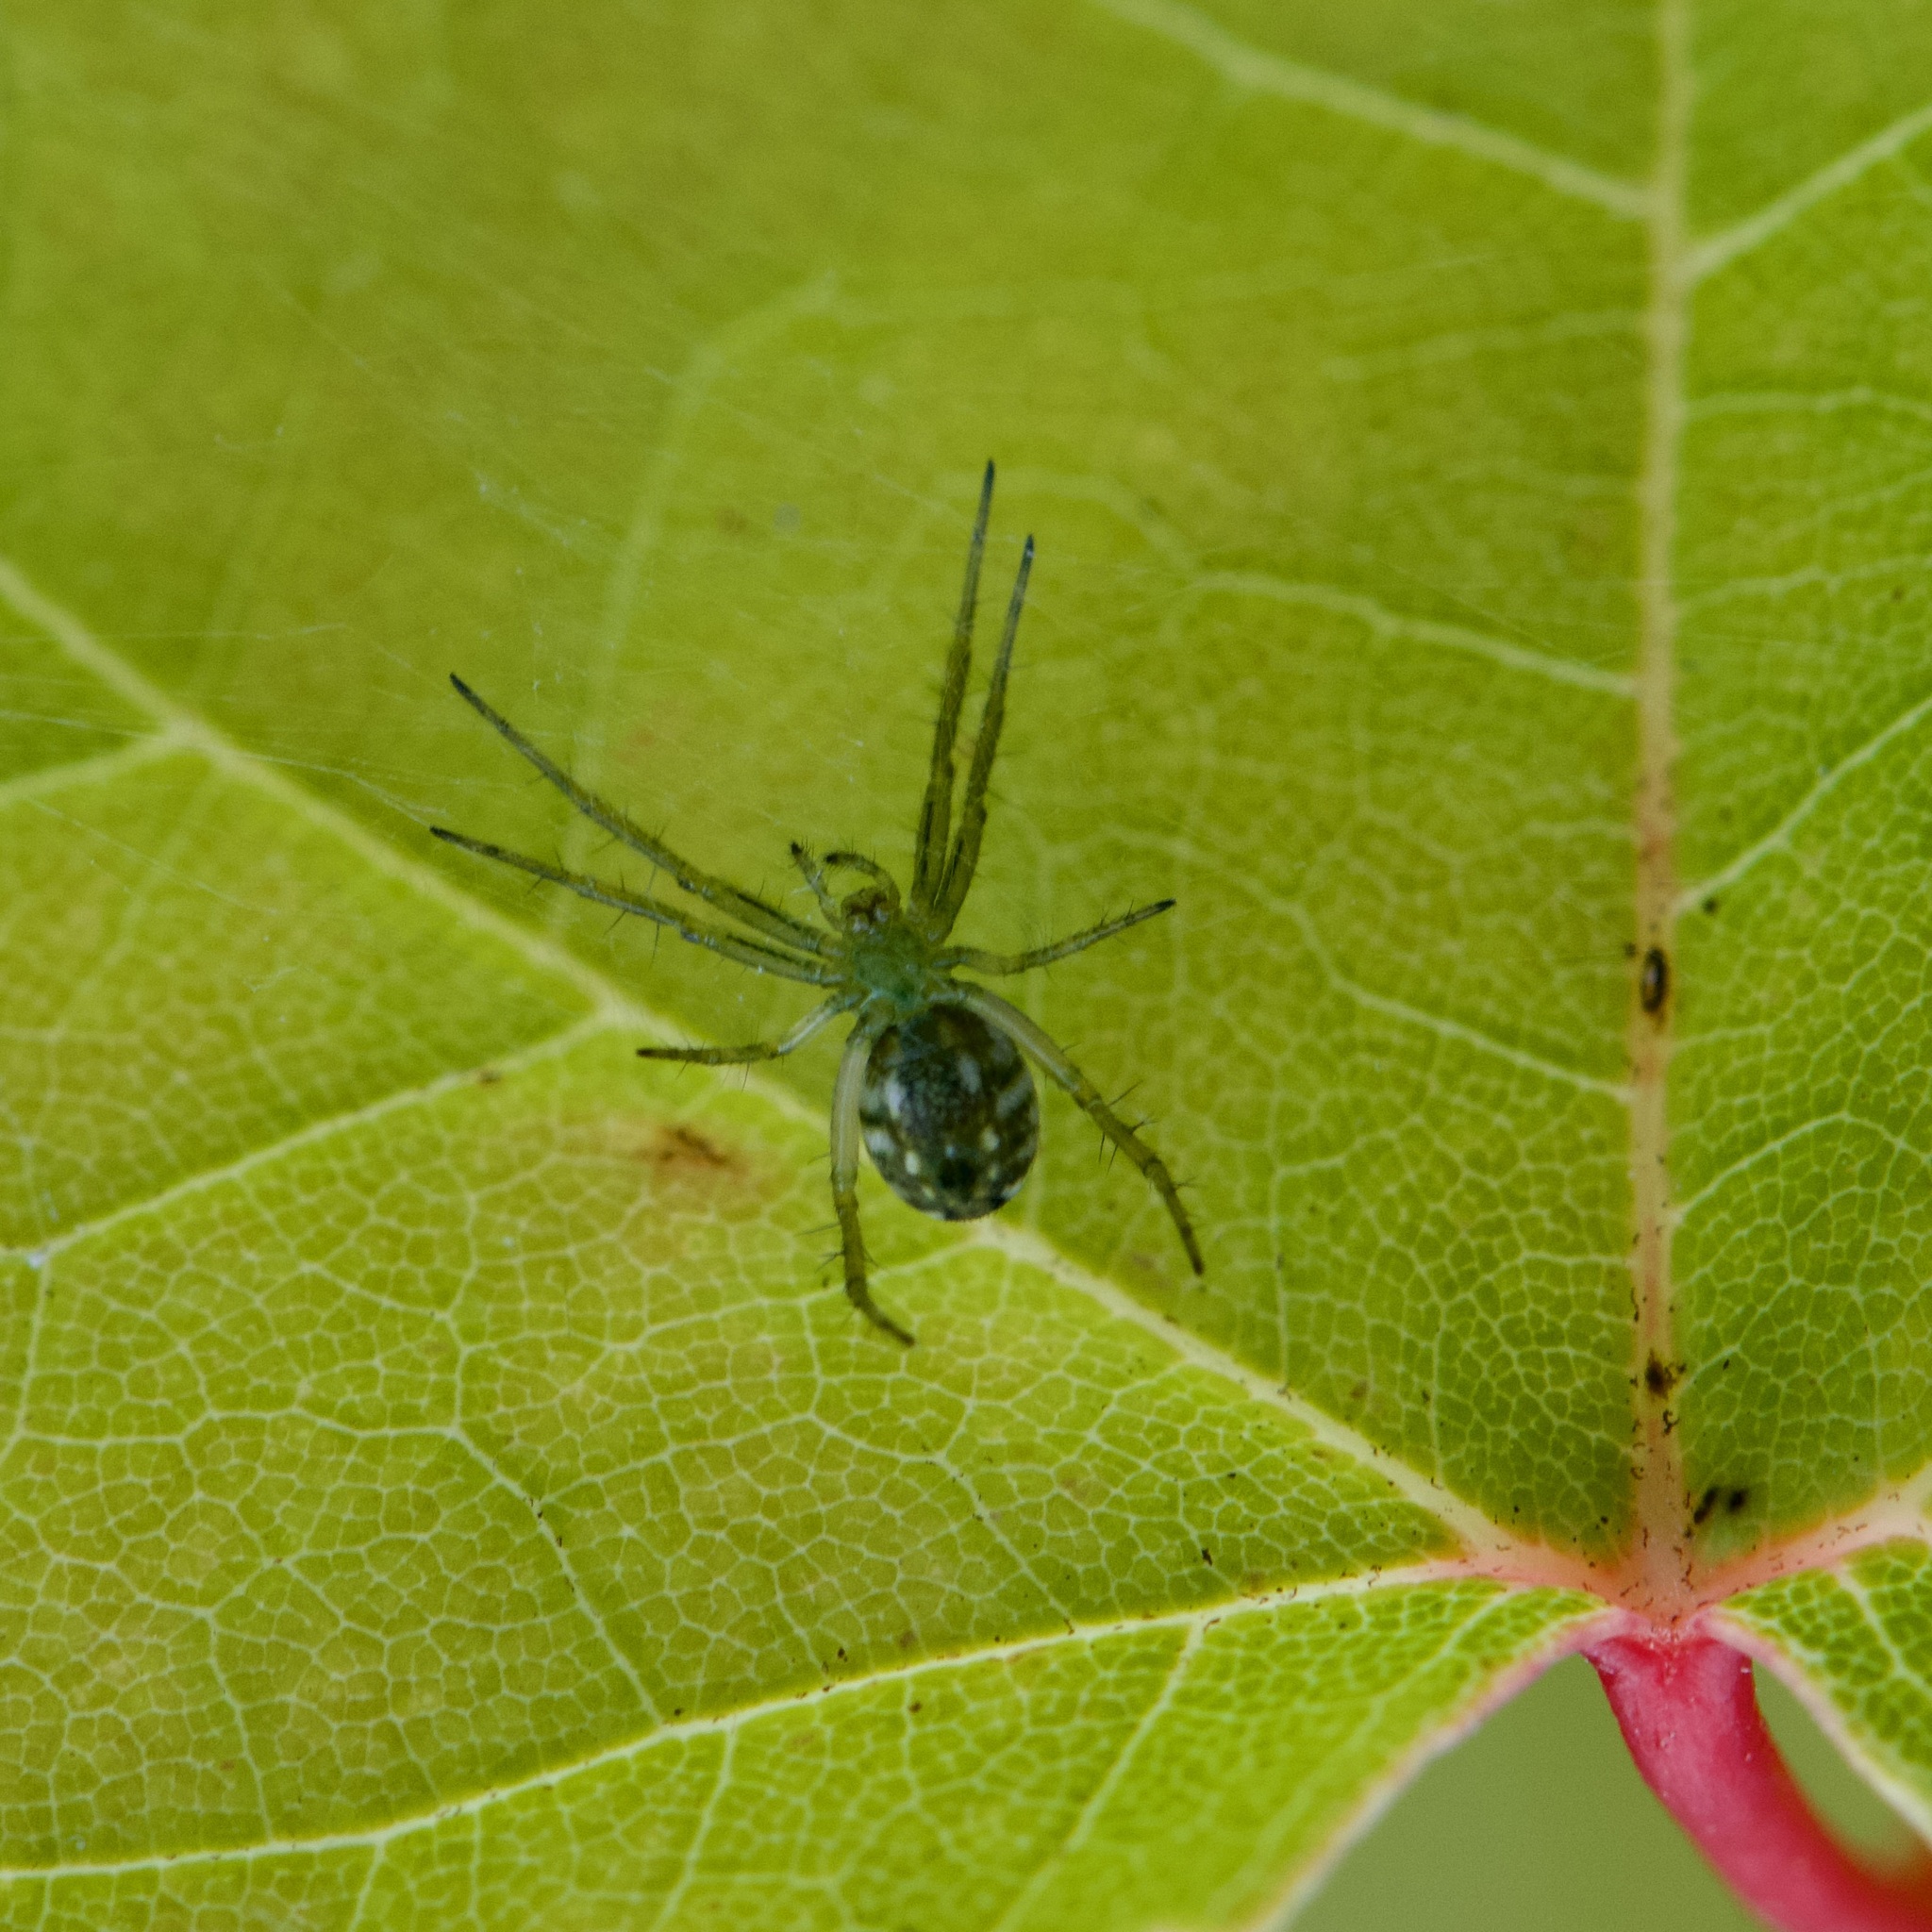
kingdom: Animalia
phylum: Arthropoda
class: Arachnida
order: Araneae
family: Araneidae
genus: Mangora
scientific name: Mangora gibberosa
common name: Lined orbweaver
